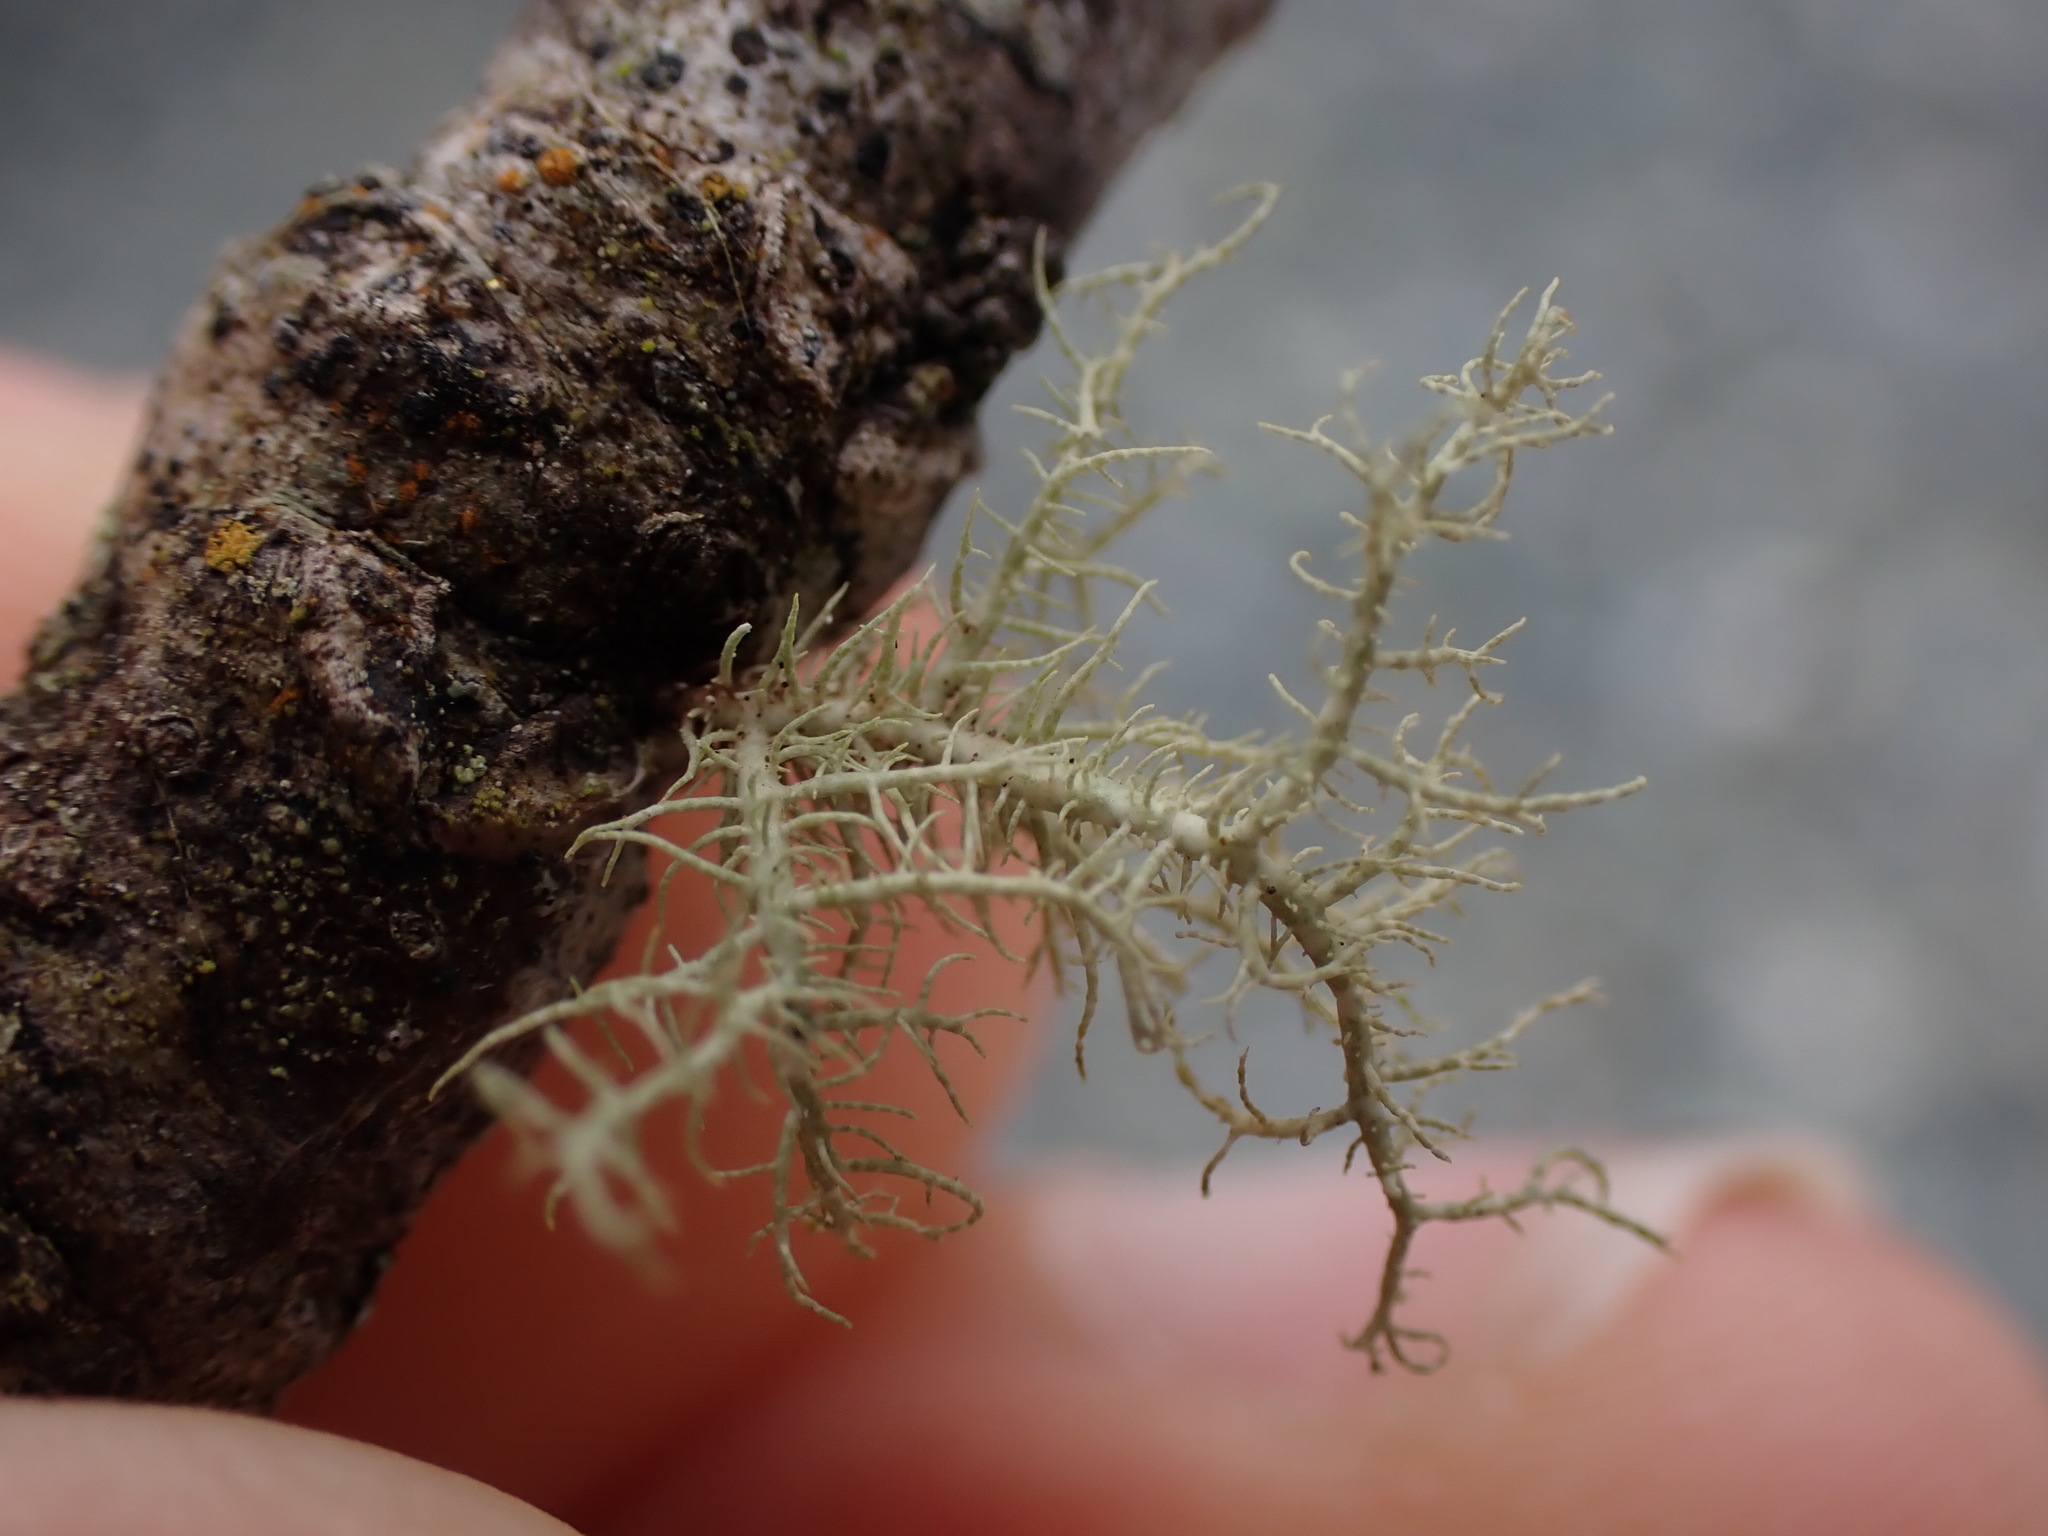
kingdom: Fungi
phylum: Ascomycota
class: Lecanoromycetes
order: Lecanorales
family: Parmeliaceae
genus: Usnea
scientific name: Usnea cornuta
